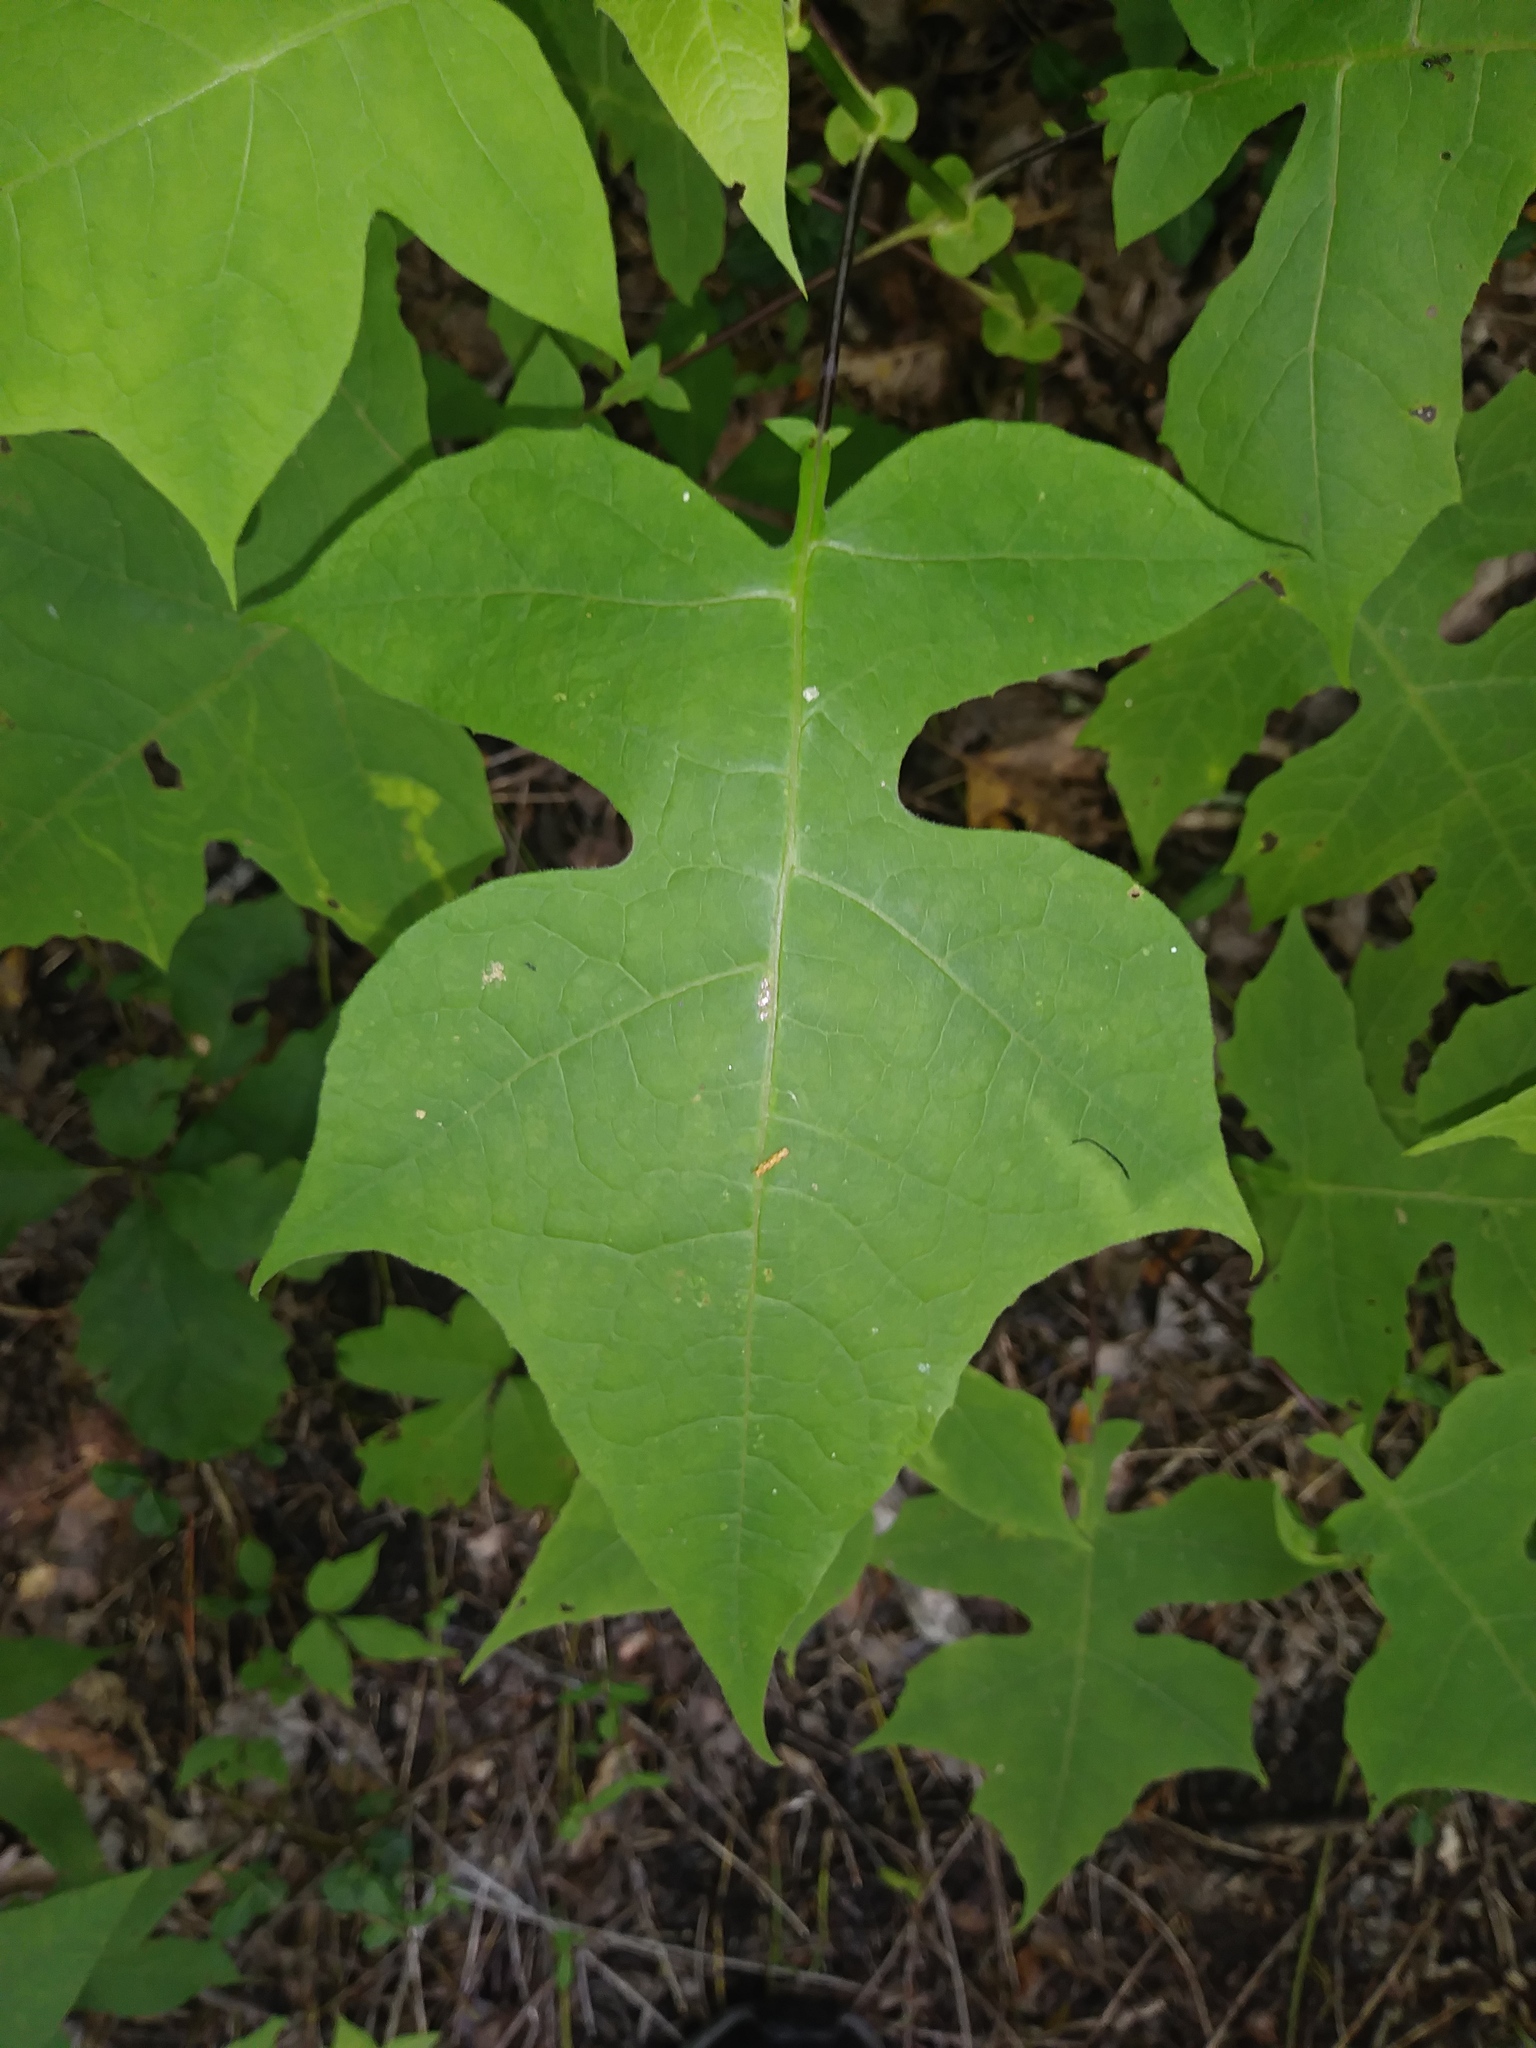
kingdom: Plantae
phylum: Tracheophyta
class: Magnoliopsida
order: Asterales
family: Asteraceae
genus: Polymnia
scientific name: Polymnia canadensis
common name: Pale-flowered leafcup
